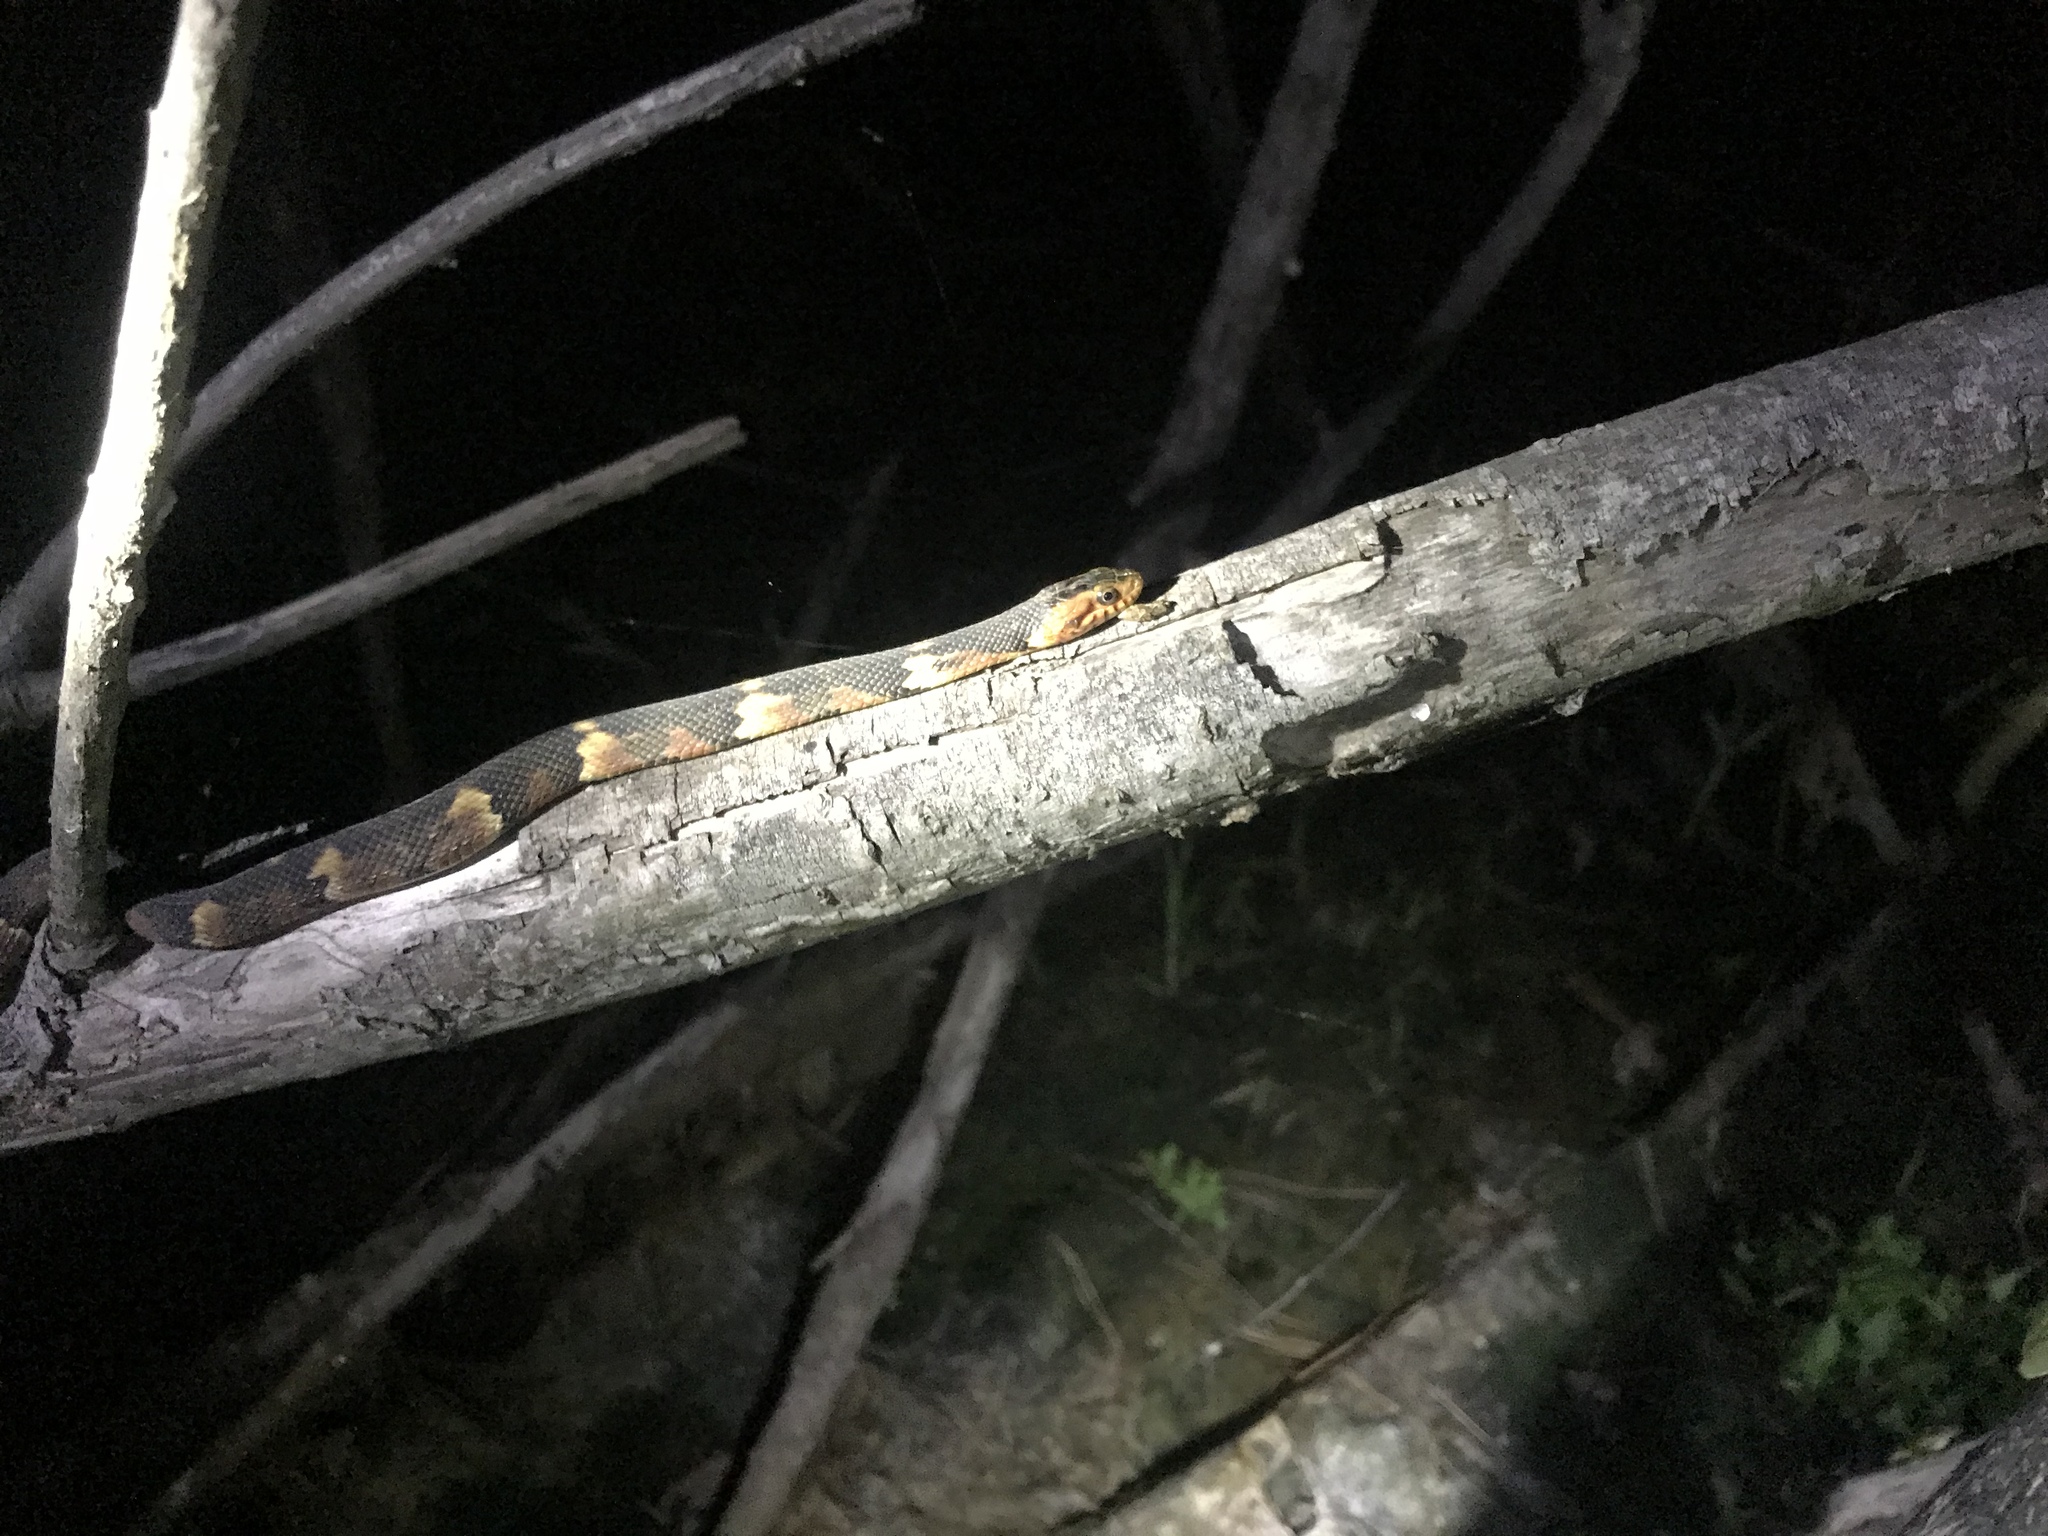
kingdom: Animalia
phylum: Chordata
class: Squamata
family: Colubridae
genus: Nerodia
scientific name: Nerodia fasciata
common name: Southern water snake
